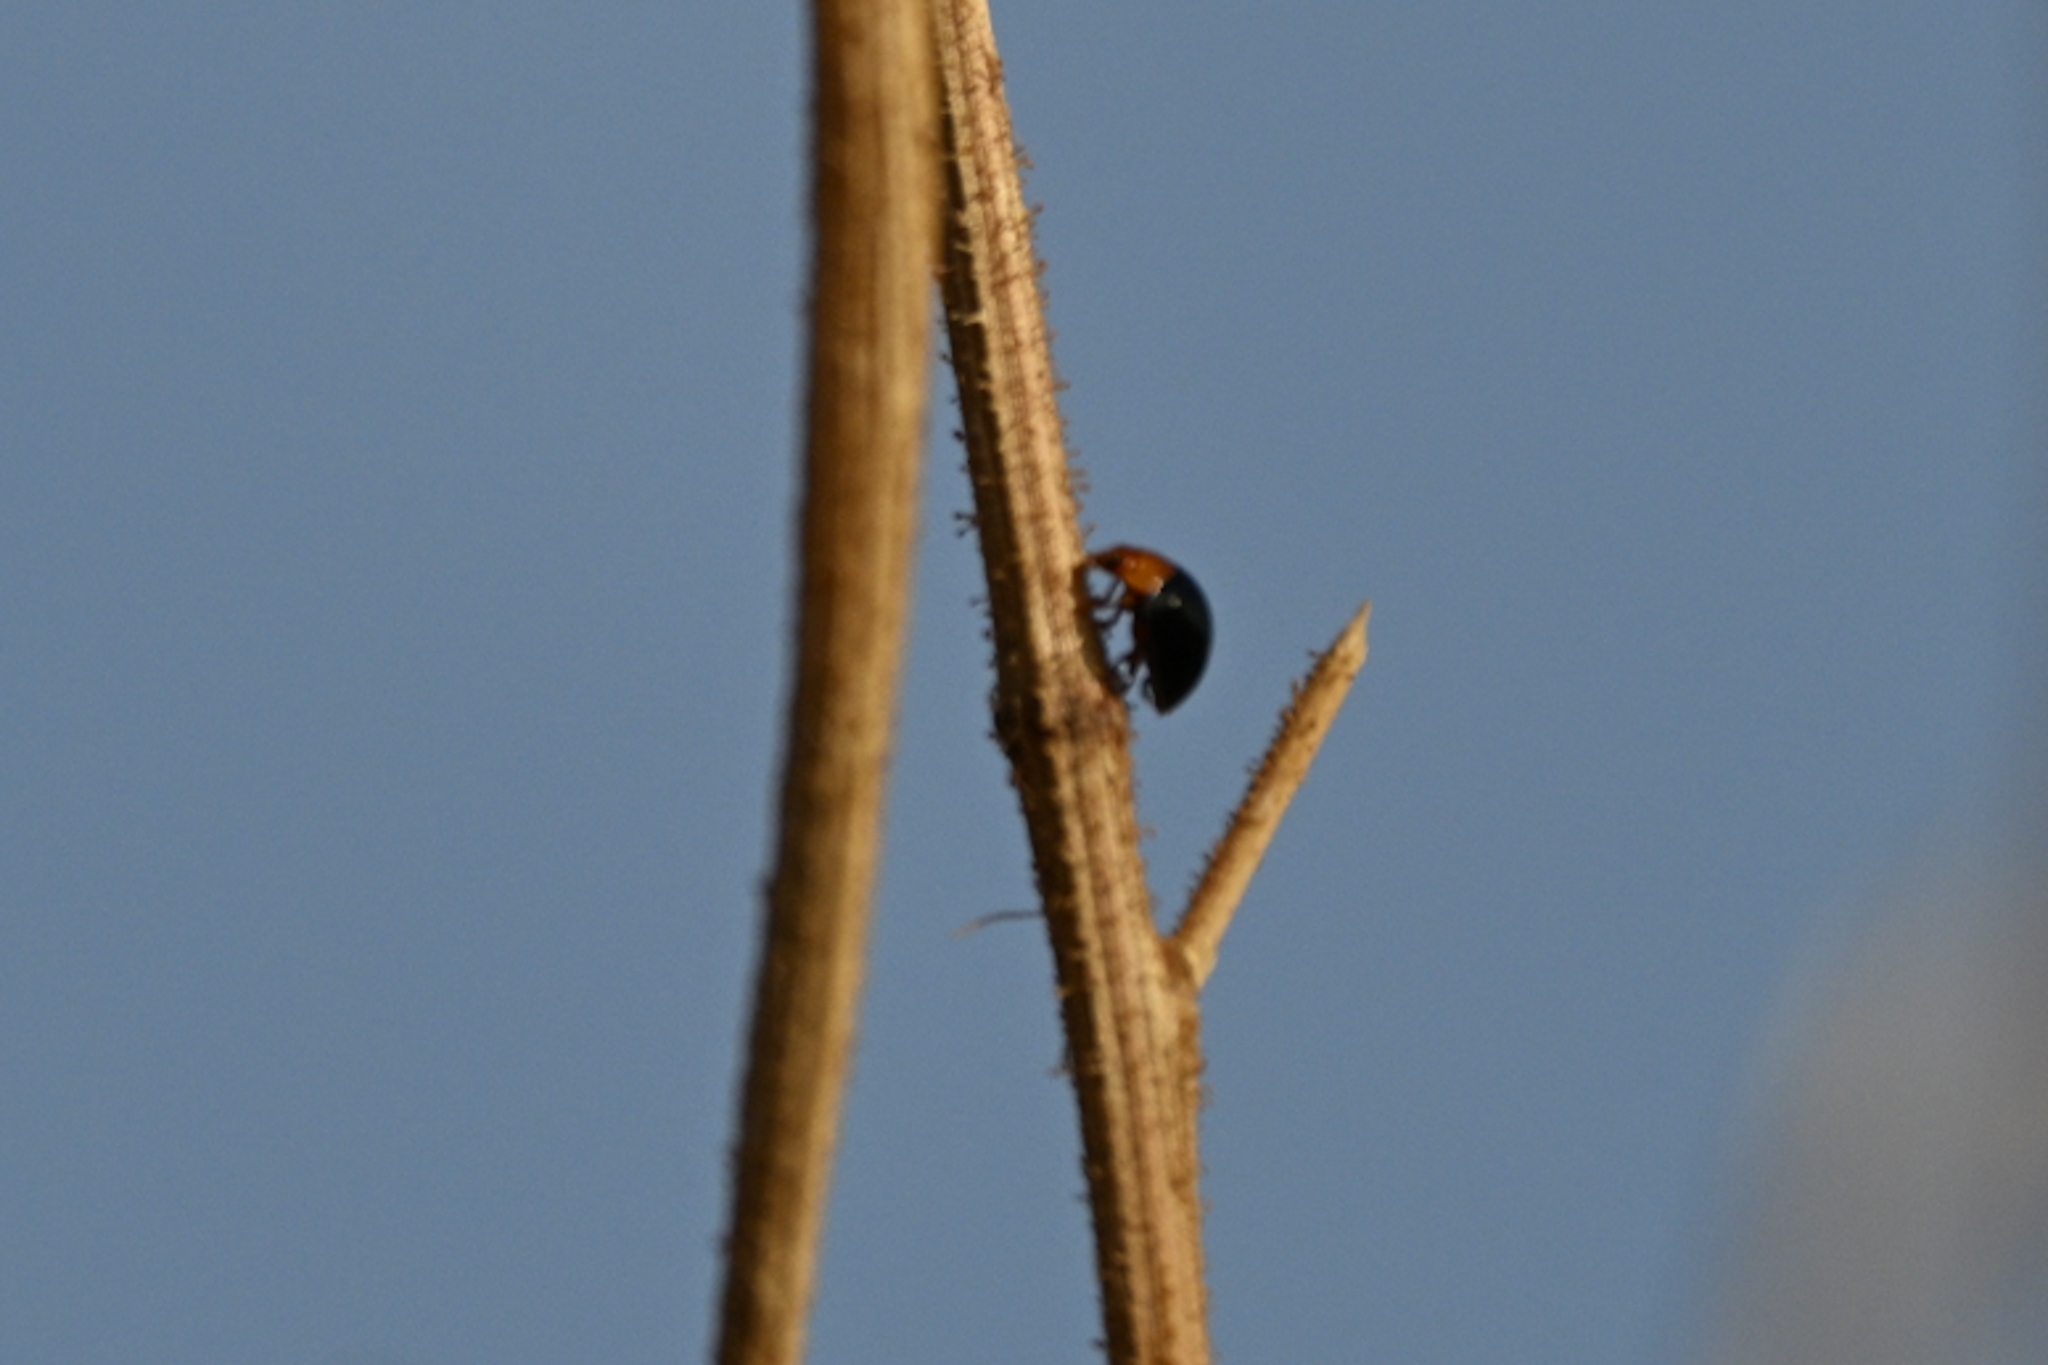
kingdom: Animalia
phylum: Arthropoda
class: Insecta
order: Coleoptera
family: Coccinellidae
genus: Exochomus
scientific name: Exochomus nigripennis
